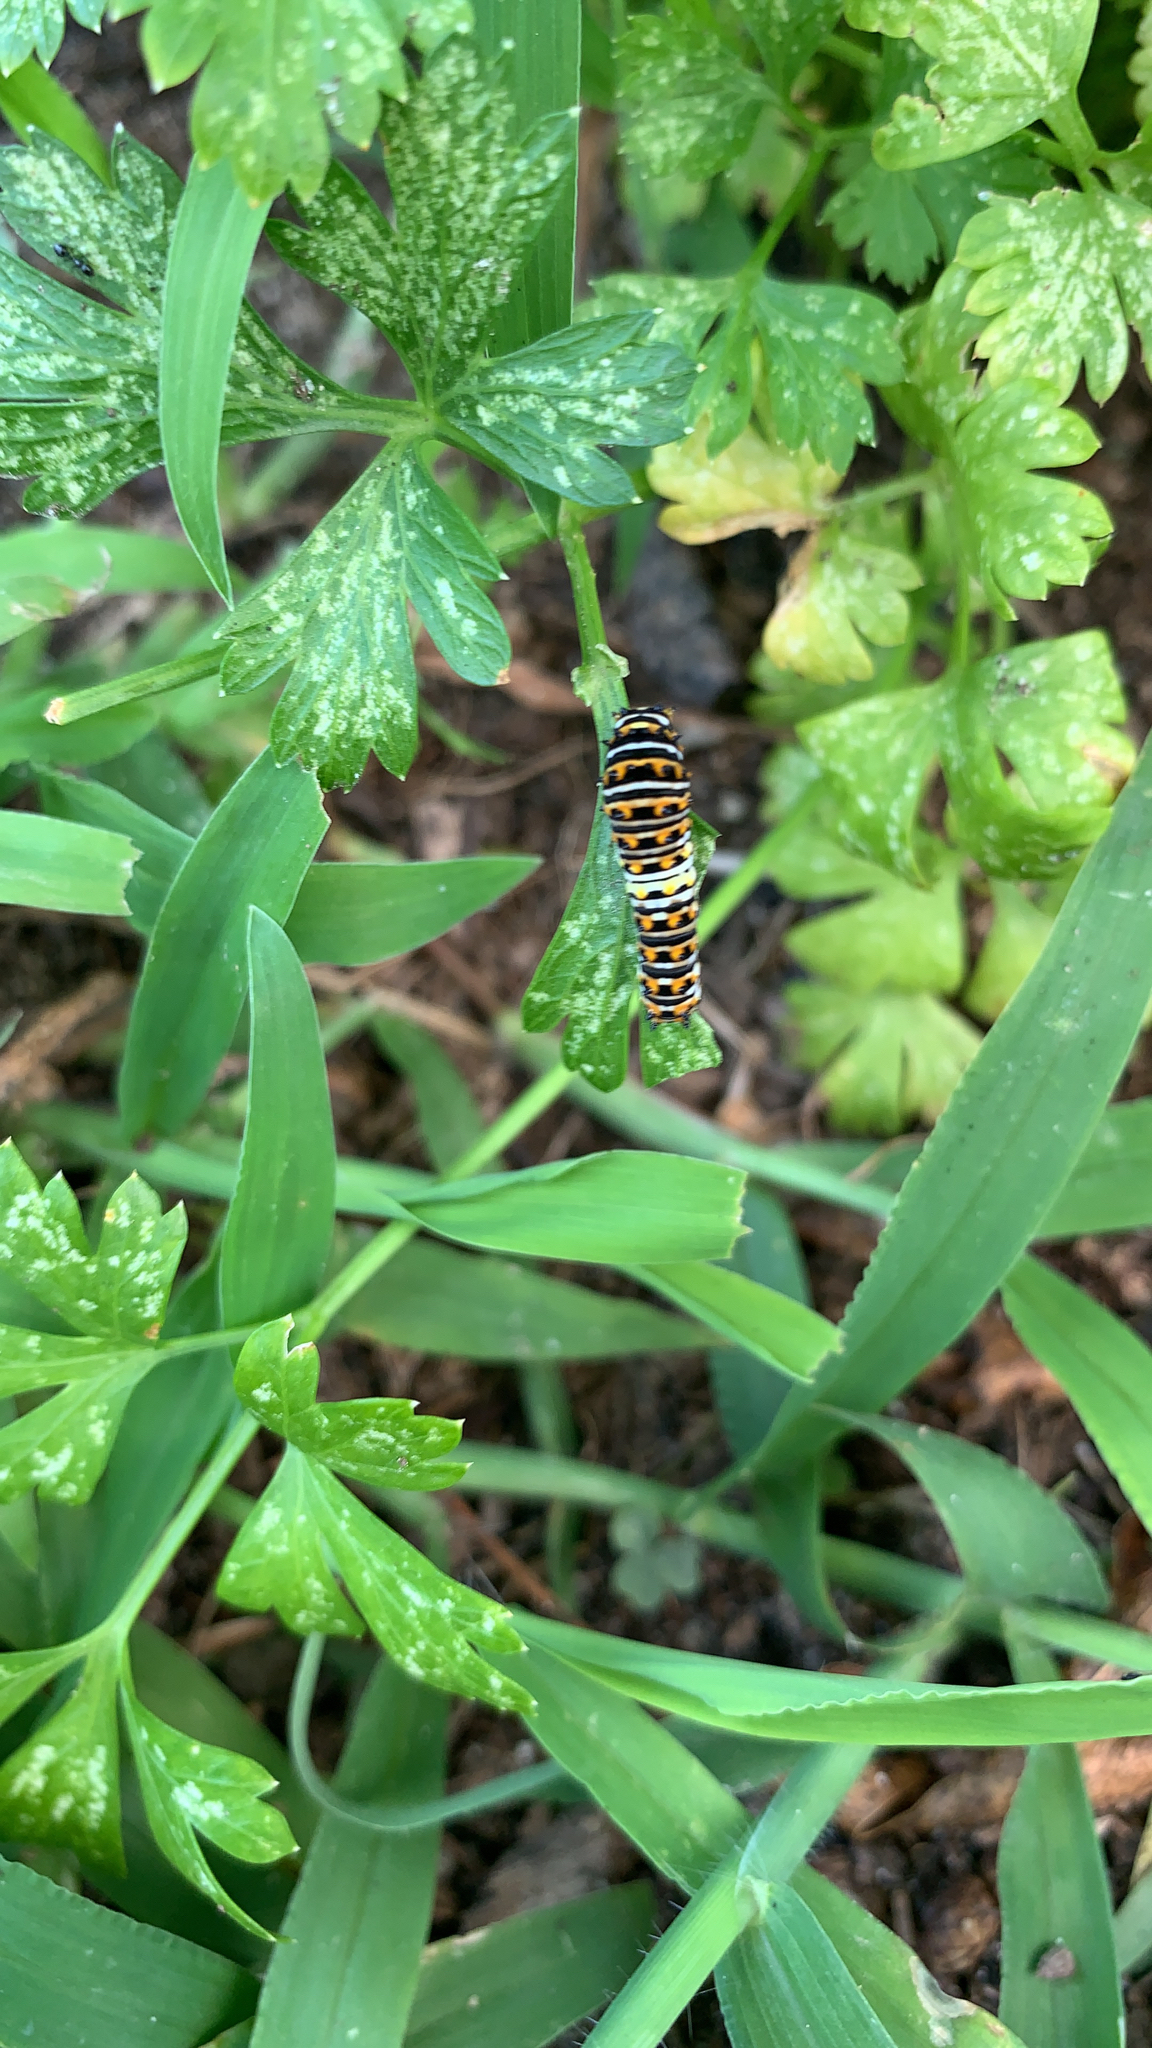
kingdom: Animalia
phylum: Arthropoda
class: Insecta
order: Lepidoptera
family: Papilionidae
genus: Papilio
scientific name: Papilio polyxenes
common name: Black swallowtail
